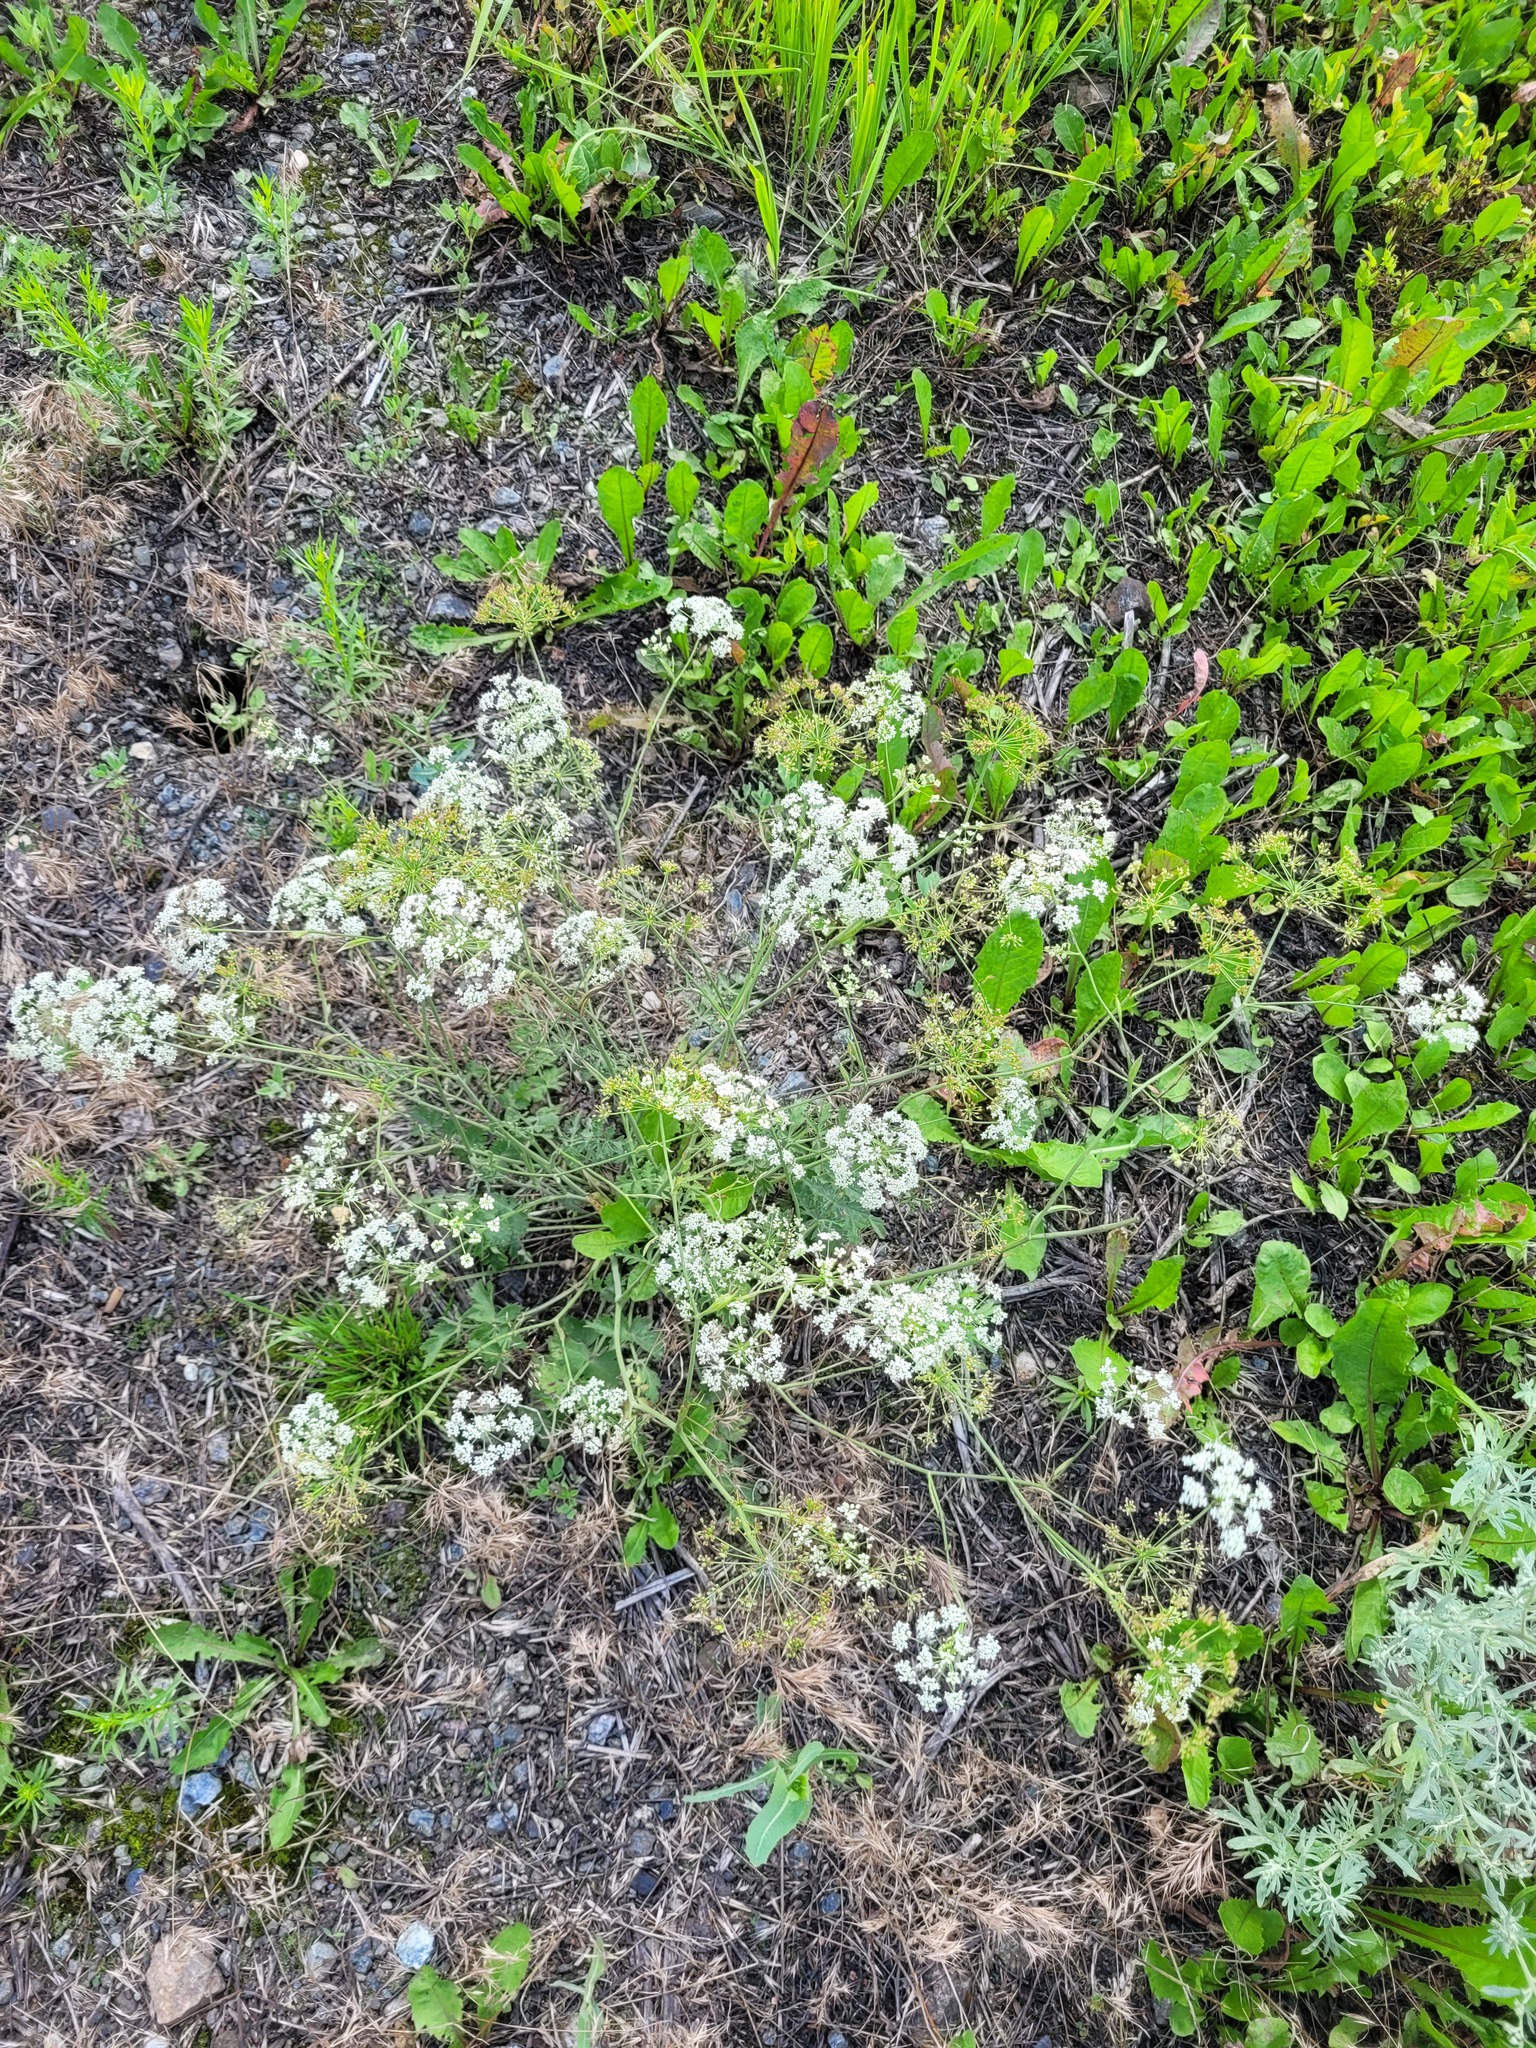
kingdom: Plantae
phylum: Tracheophyta
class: Magnoliopsida
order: Apiales
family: Apiaceae
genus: Pimpinella
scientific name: Pimpinella saxifraga
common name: Burnet-saxifrage
